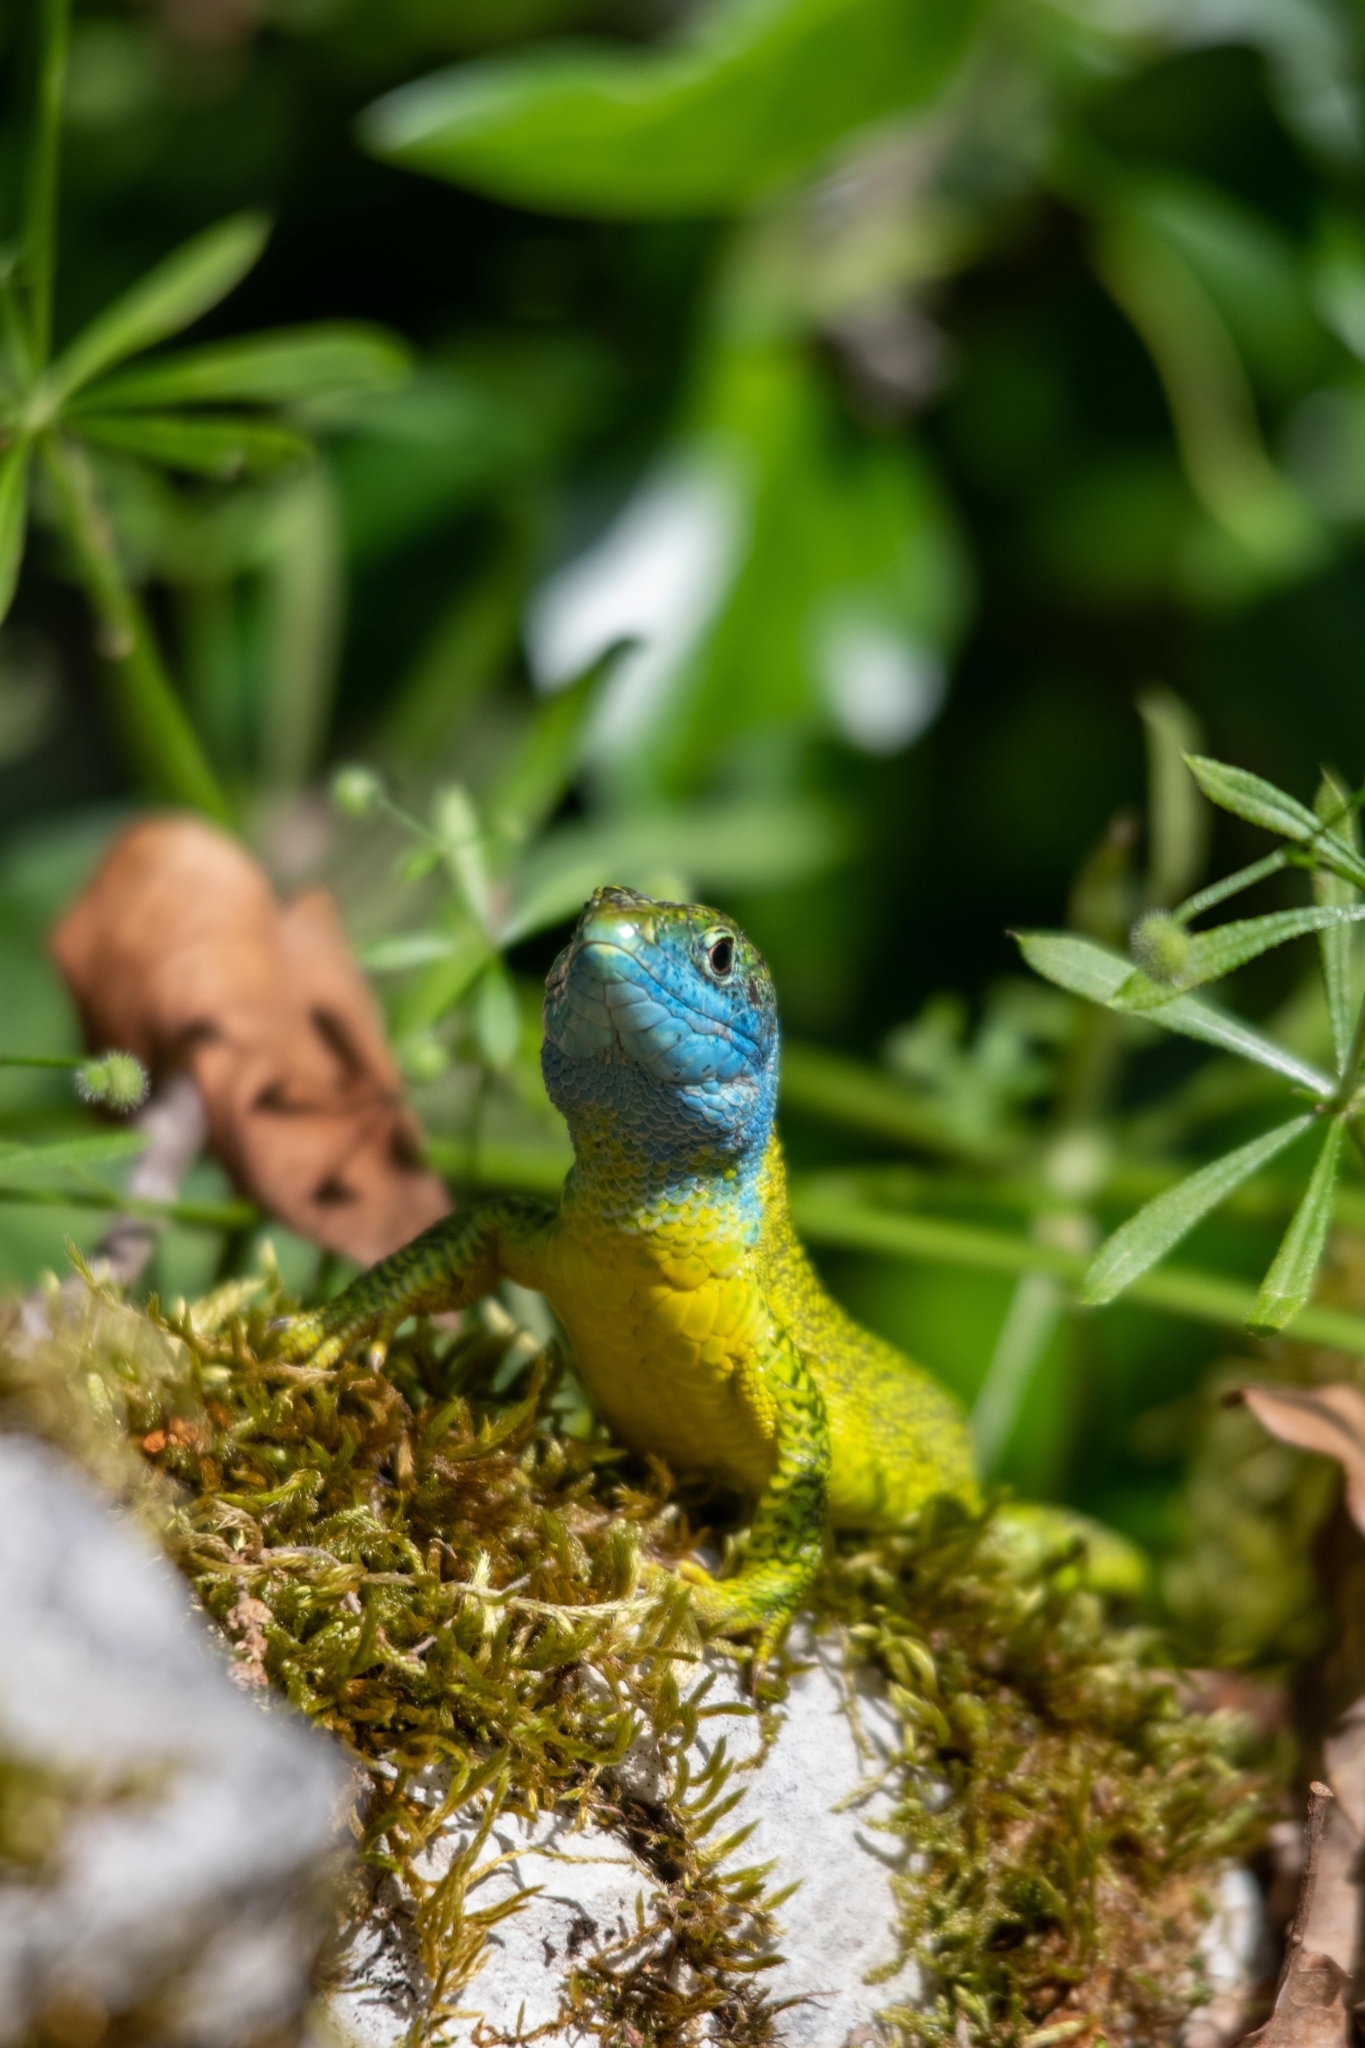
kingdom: Animalia
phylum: Chordata
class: Squamata
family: Lacertidae
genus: Lacerta
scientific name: Lacerta bilineata
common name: Western green lizard
